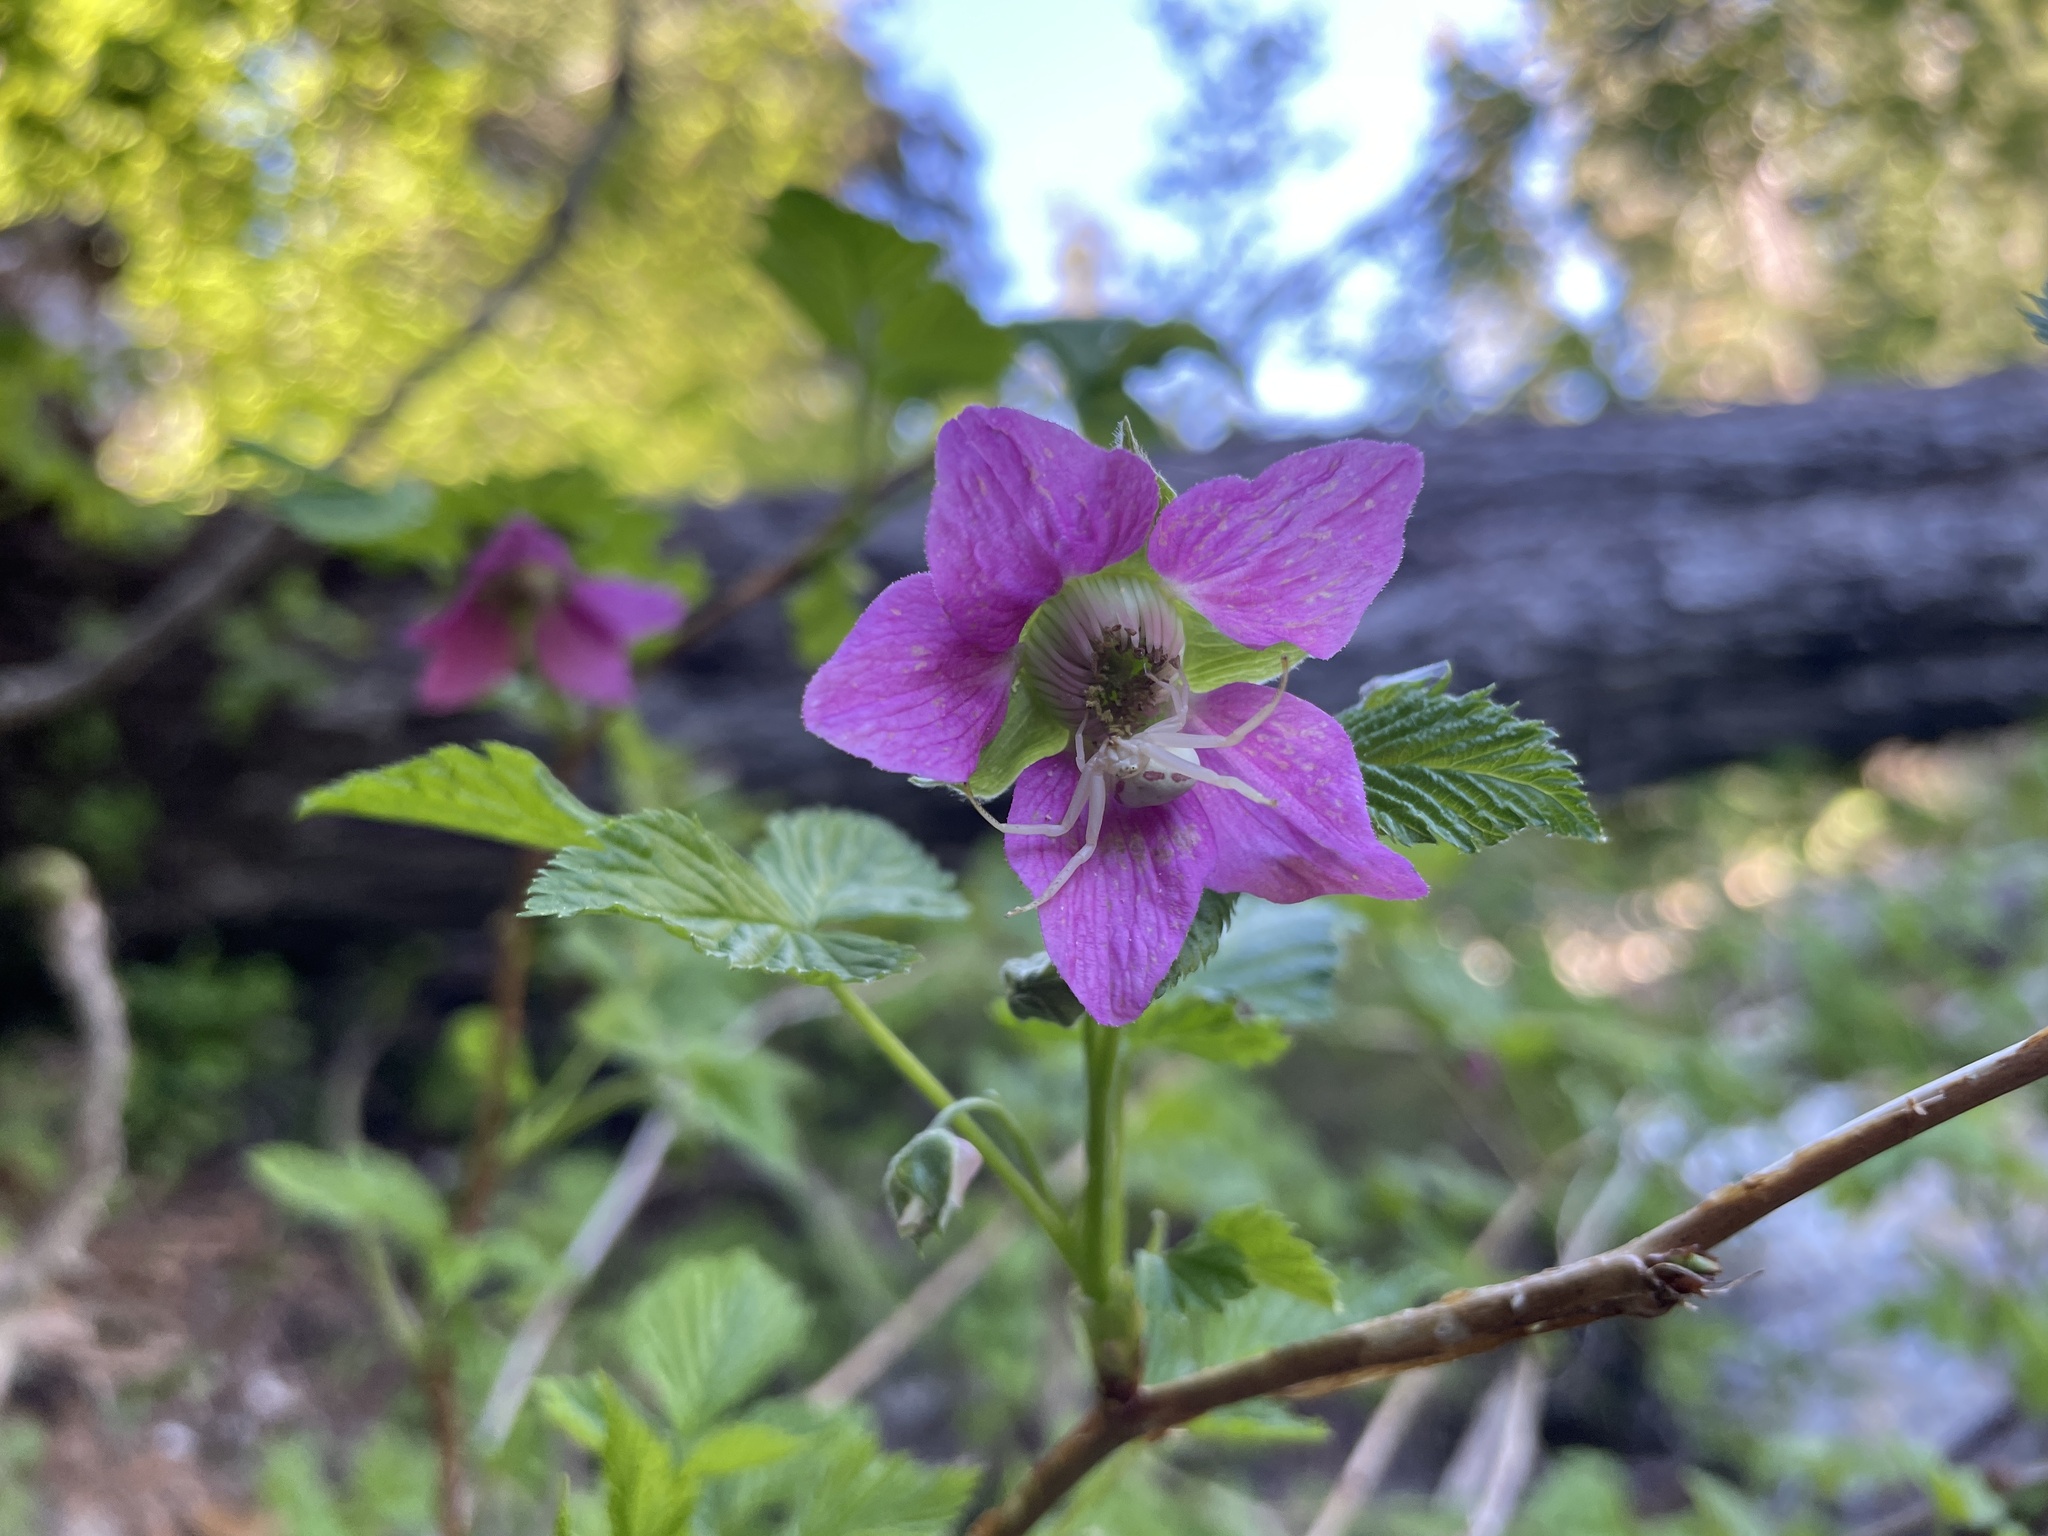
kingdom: Plantae
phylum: Tracheophyta
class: Magnoliopsida
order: Rosales
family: Rosaceae
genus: Rubus
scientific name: Rubus spectabilis
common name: Salmonberry
